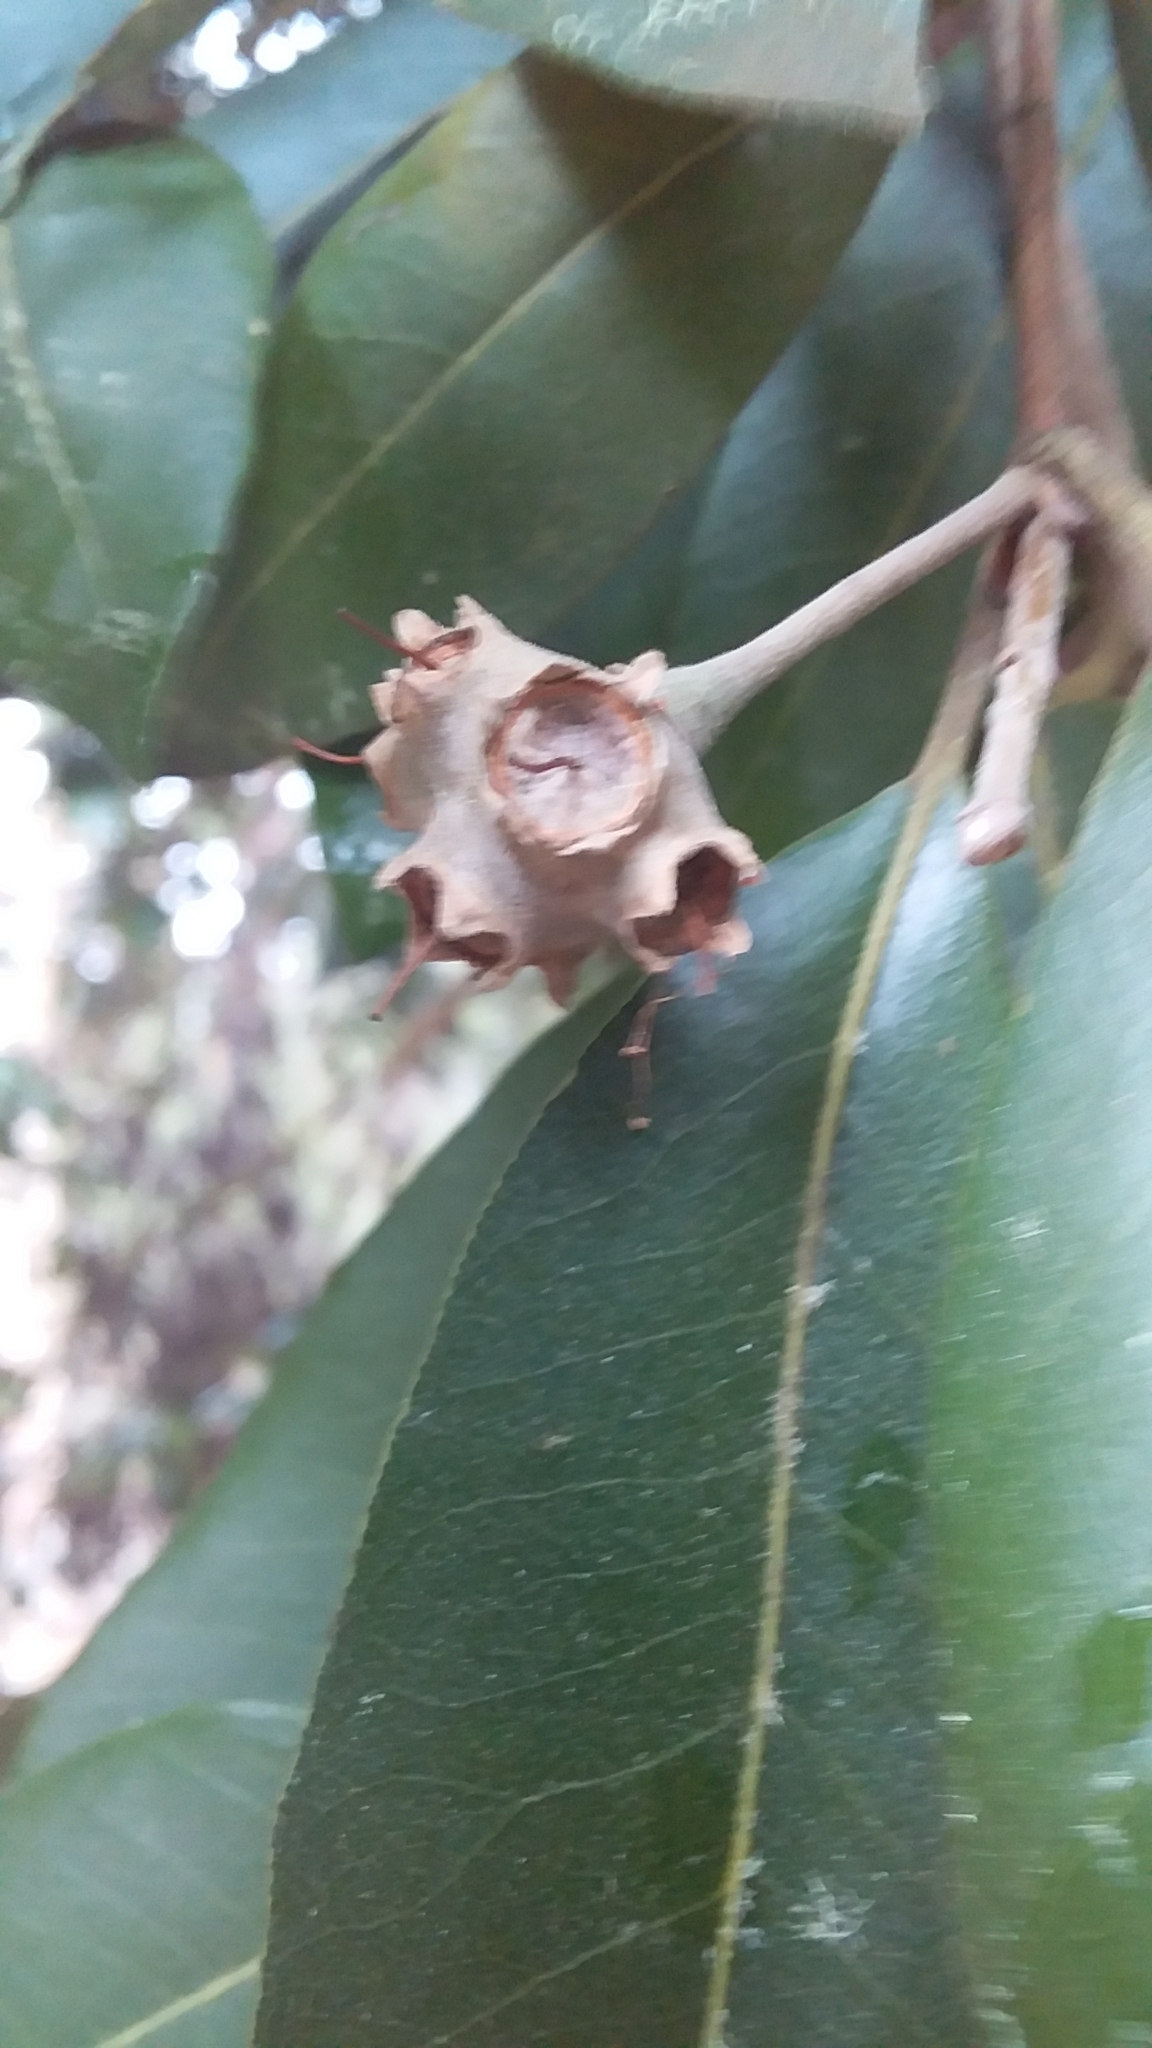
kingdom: Plantae
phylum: Tracheophyta
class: Magnoliopsida
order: Myrtales
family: Myrtaceae
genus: Syncarpia
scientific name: Syncarpia glomulifera
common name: Turpentine tree
